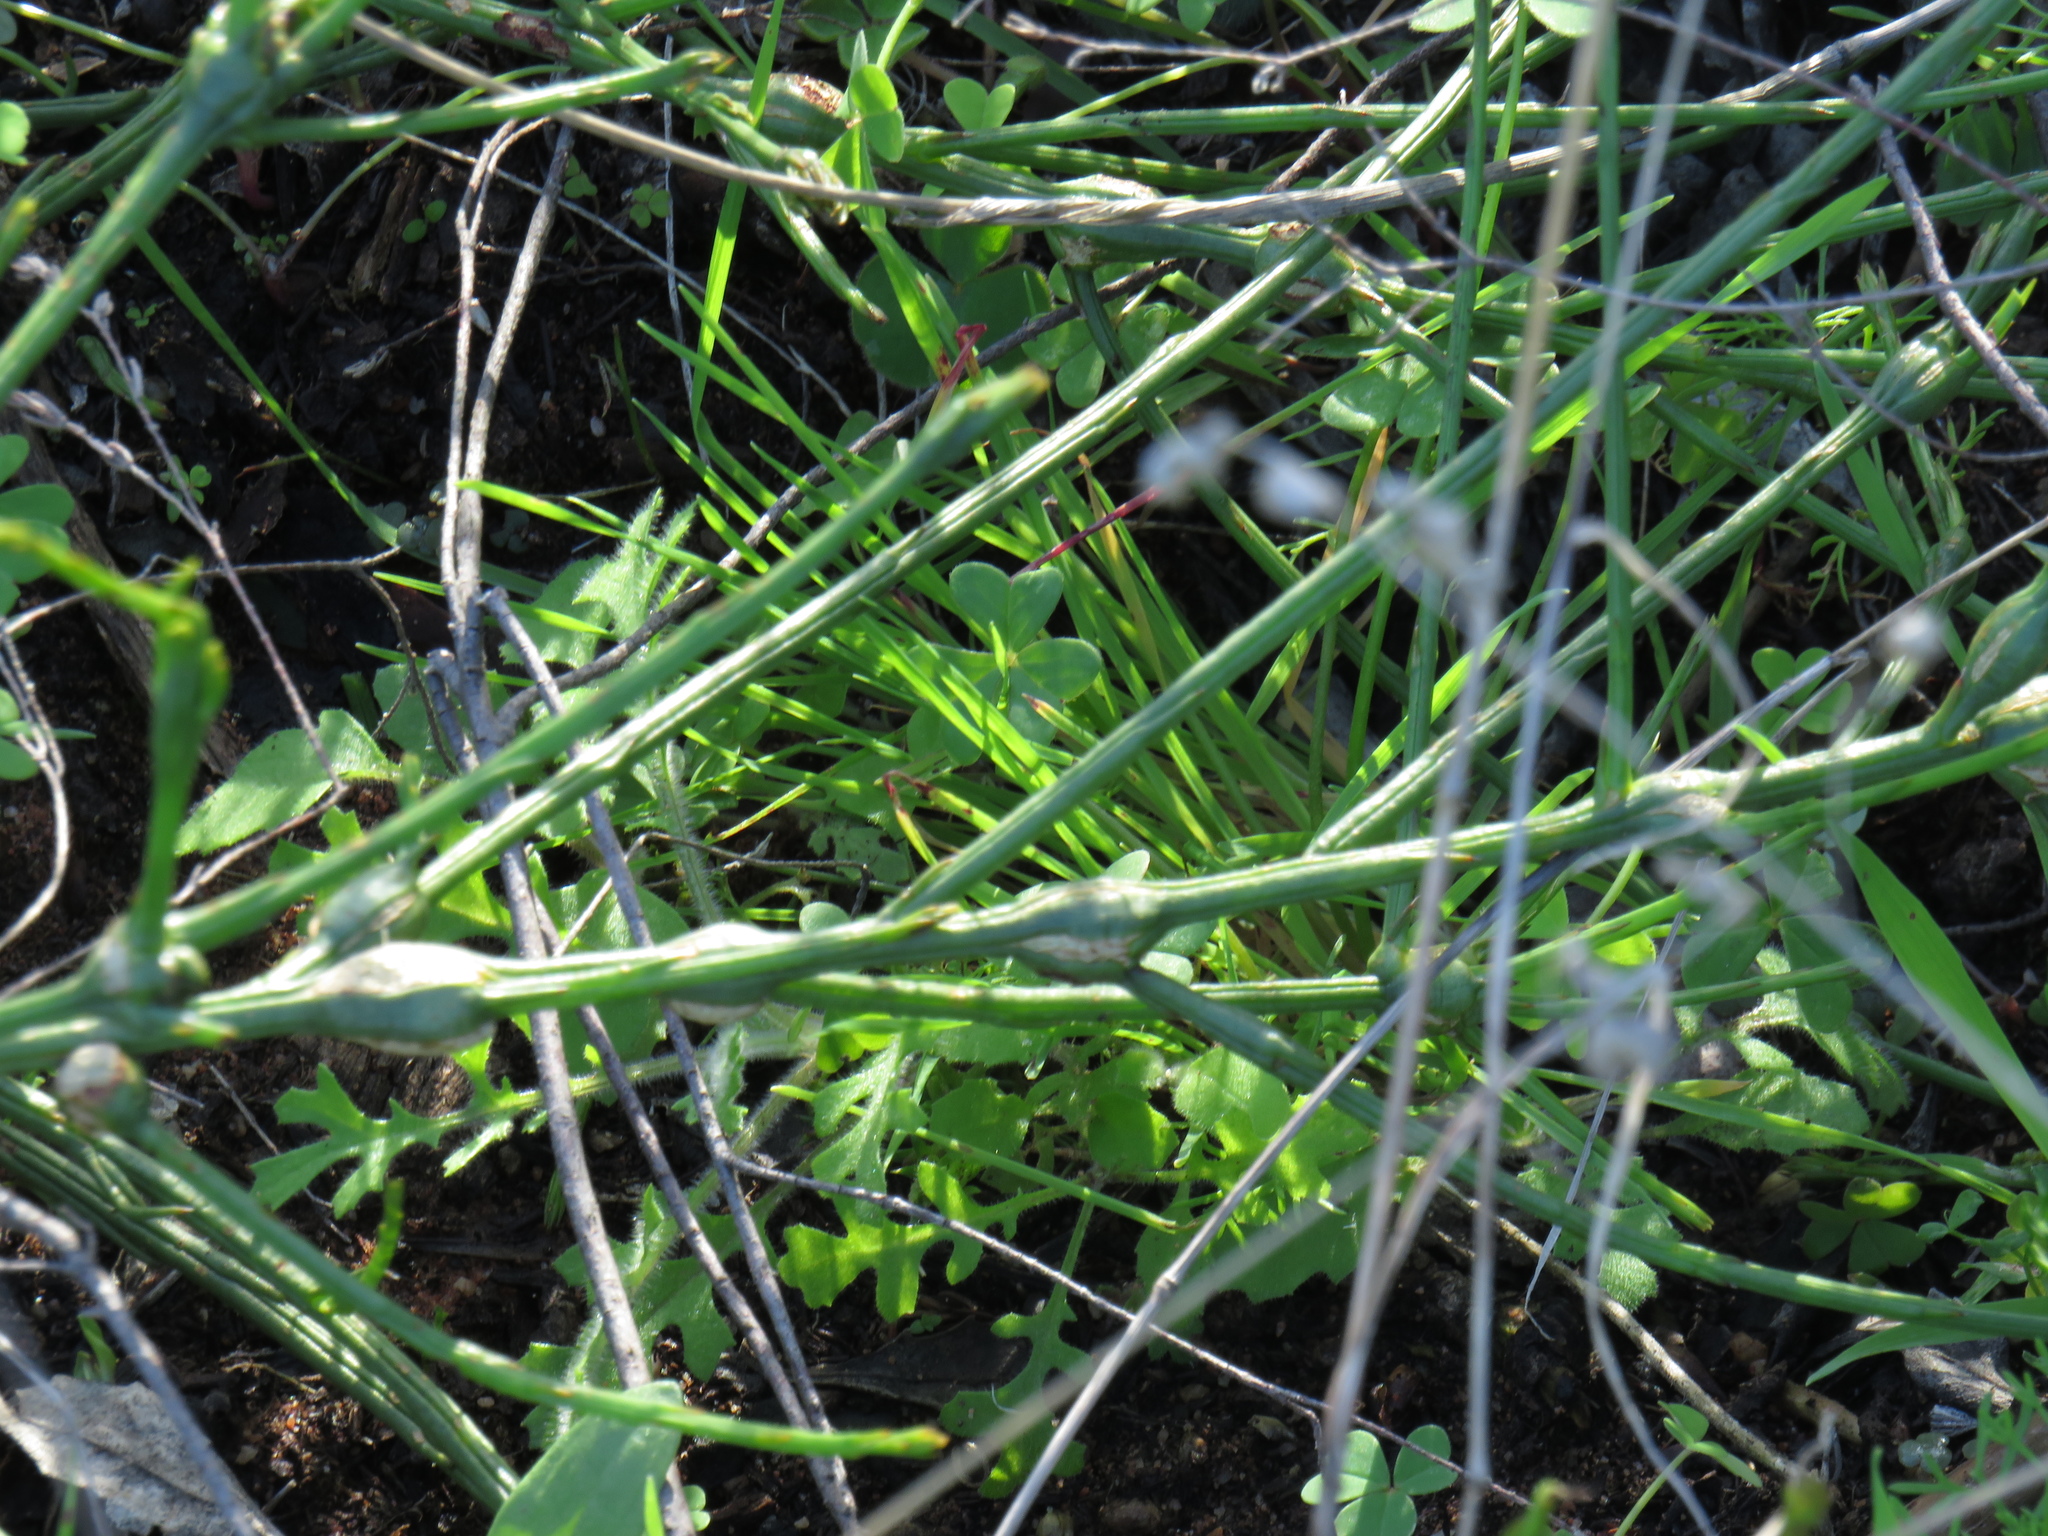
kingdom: Plantae
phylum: Tracheophyta
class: Magnoliopsida
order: Santalales
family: Thesiaceae
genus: Thesium
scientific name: Thesium aggregatum
